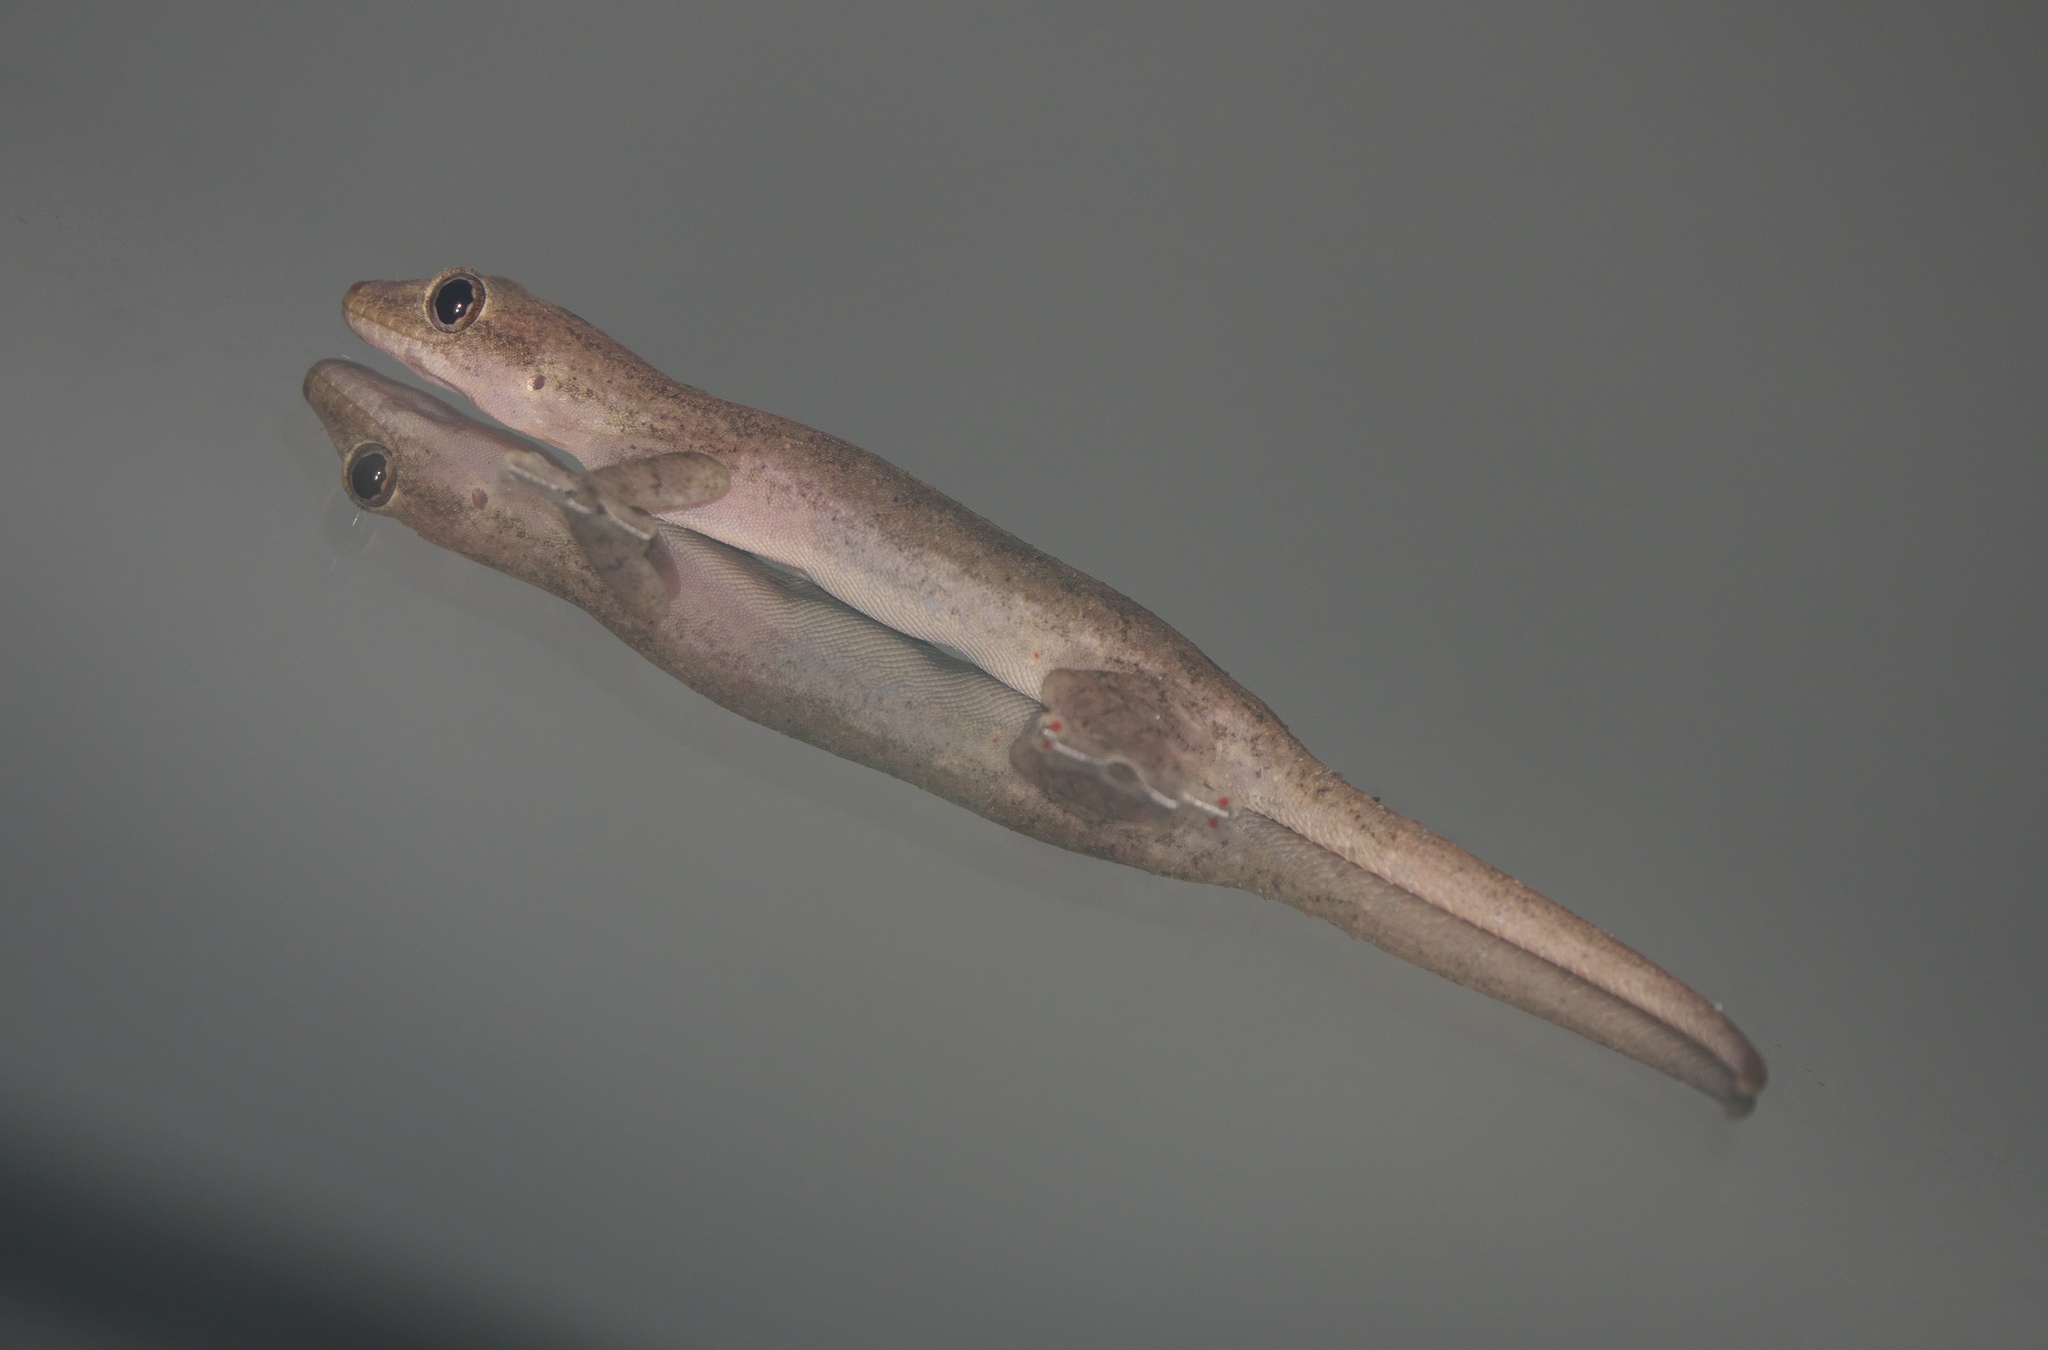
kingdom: Animalia
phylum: Chordata
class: Squamata
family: Gekkonidae
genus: Hemidactylus
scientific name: Hemidactylus frenatus
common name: Common house gecko
